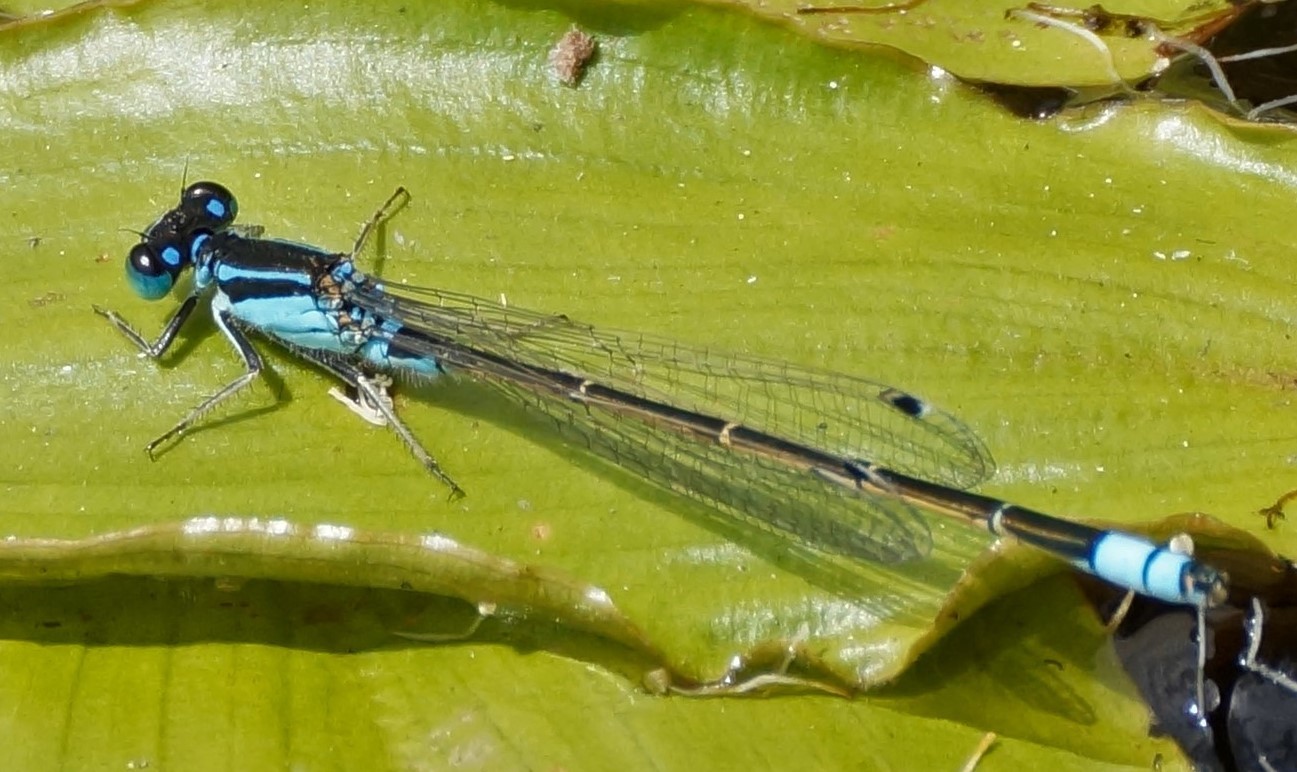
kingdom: Animalia
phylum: Arthropoda
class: Insecta
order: Odonata
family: Coenagrionidae
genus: Ischnura
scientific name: Ischnura heterosticta
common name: Common bluetail
